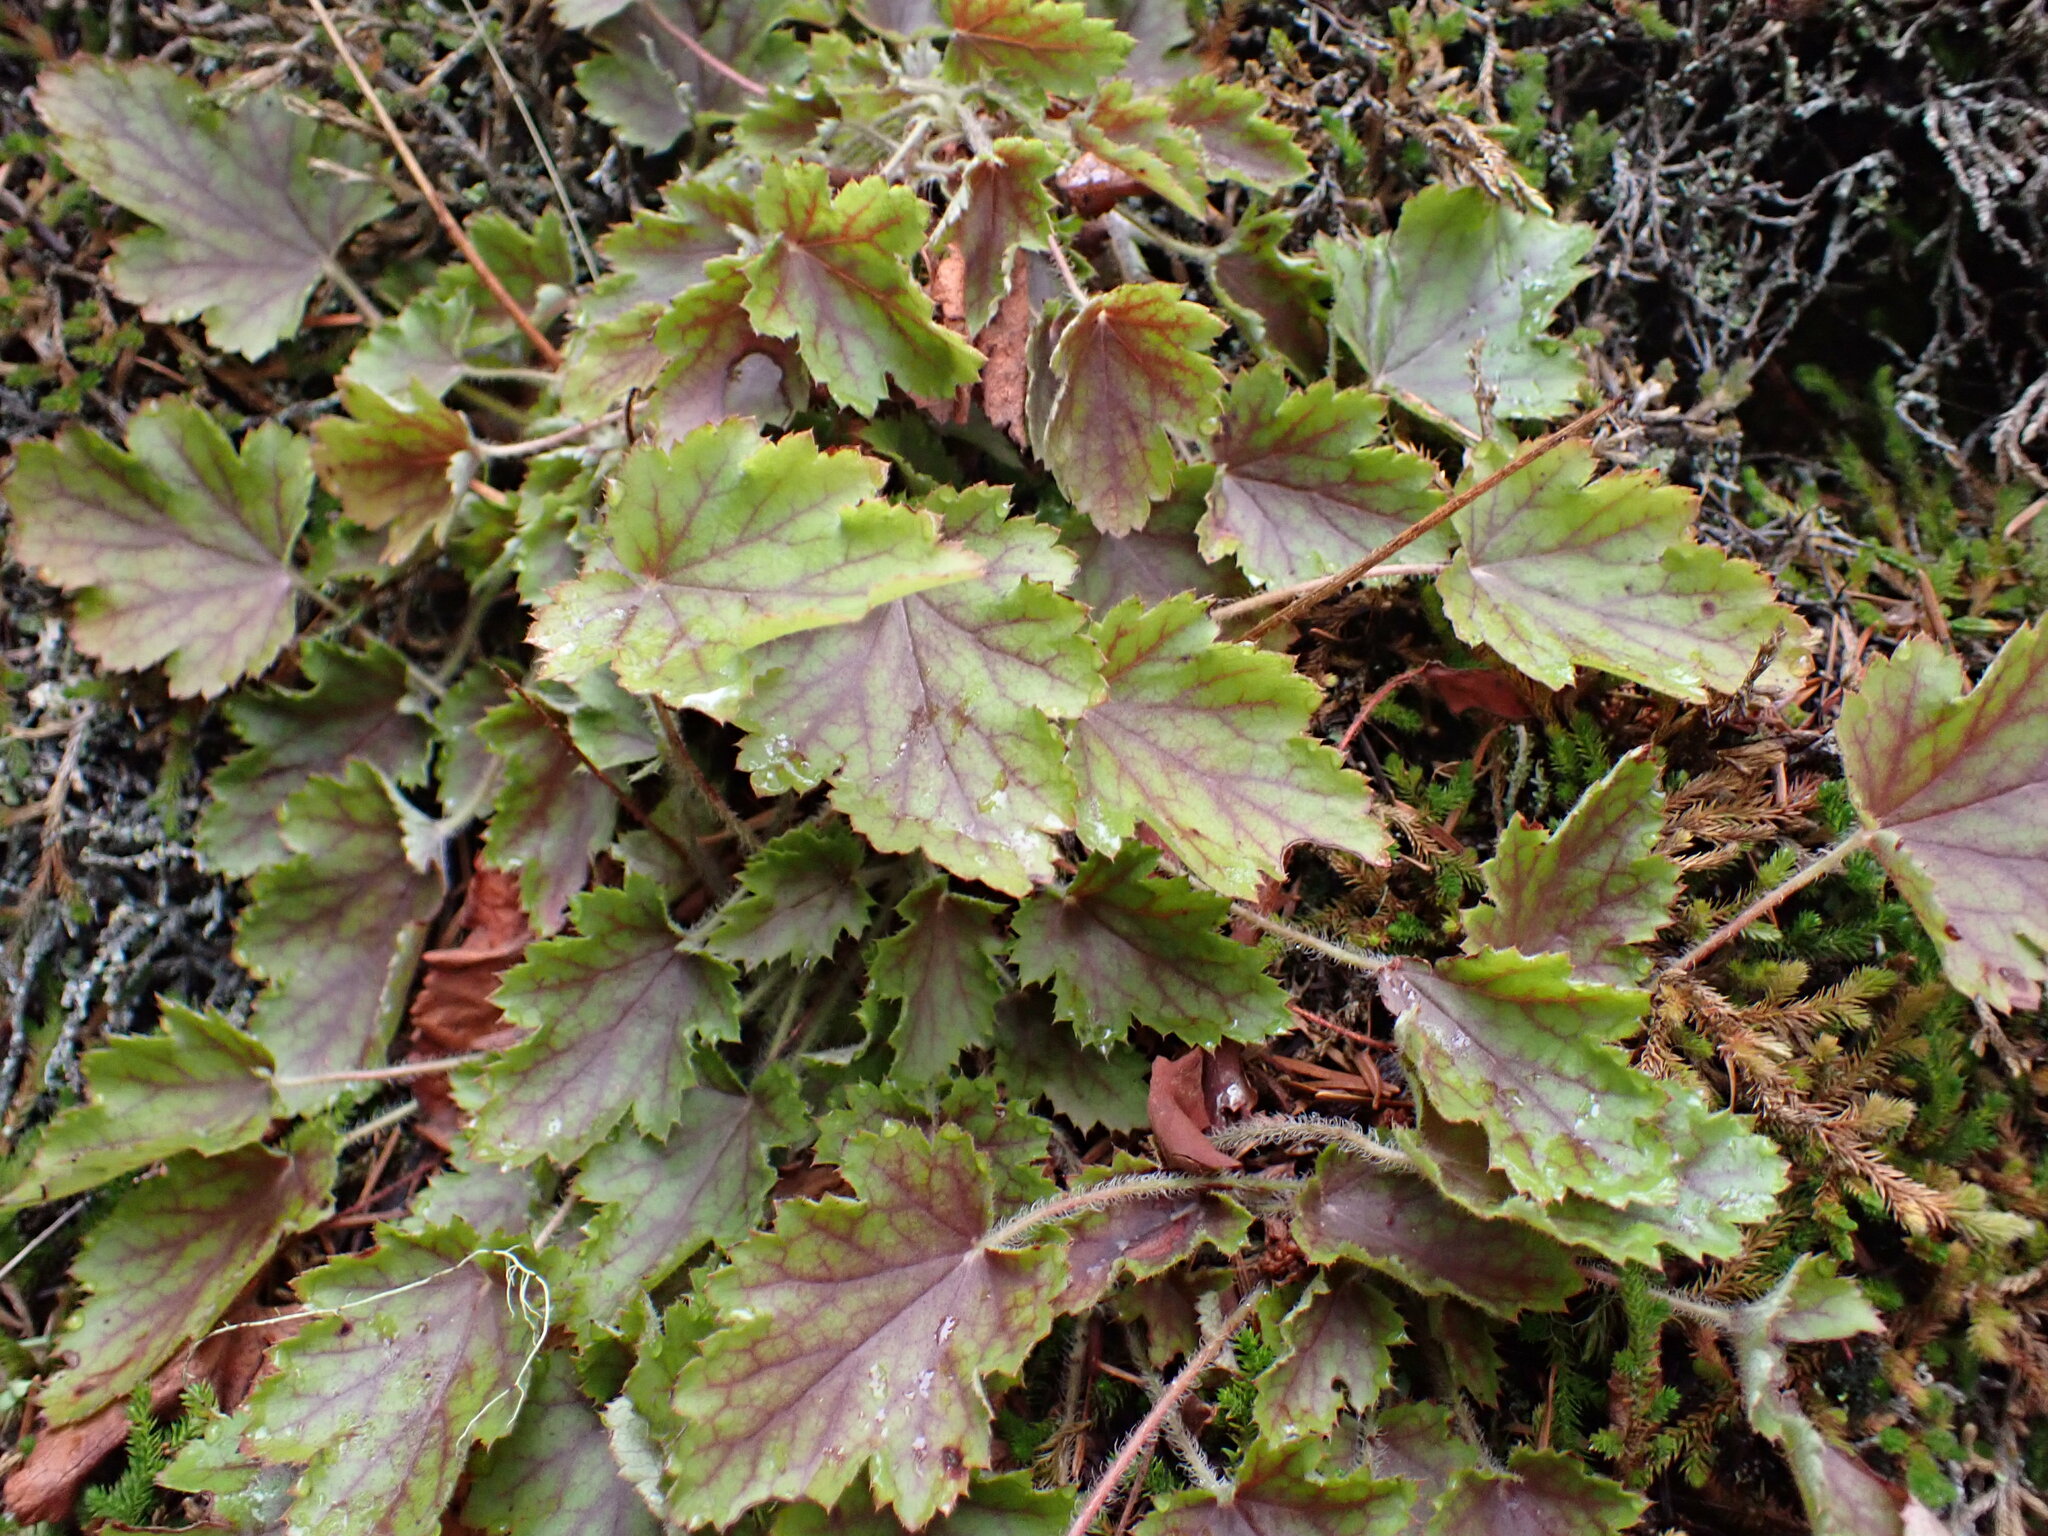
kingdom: Plantae
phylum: Tracheophyta
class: Magnoliopsida
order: Saxifragales
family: Saxifragaceae
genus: Heuchera
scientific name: Heuchera micrantha
